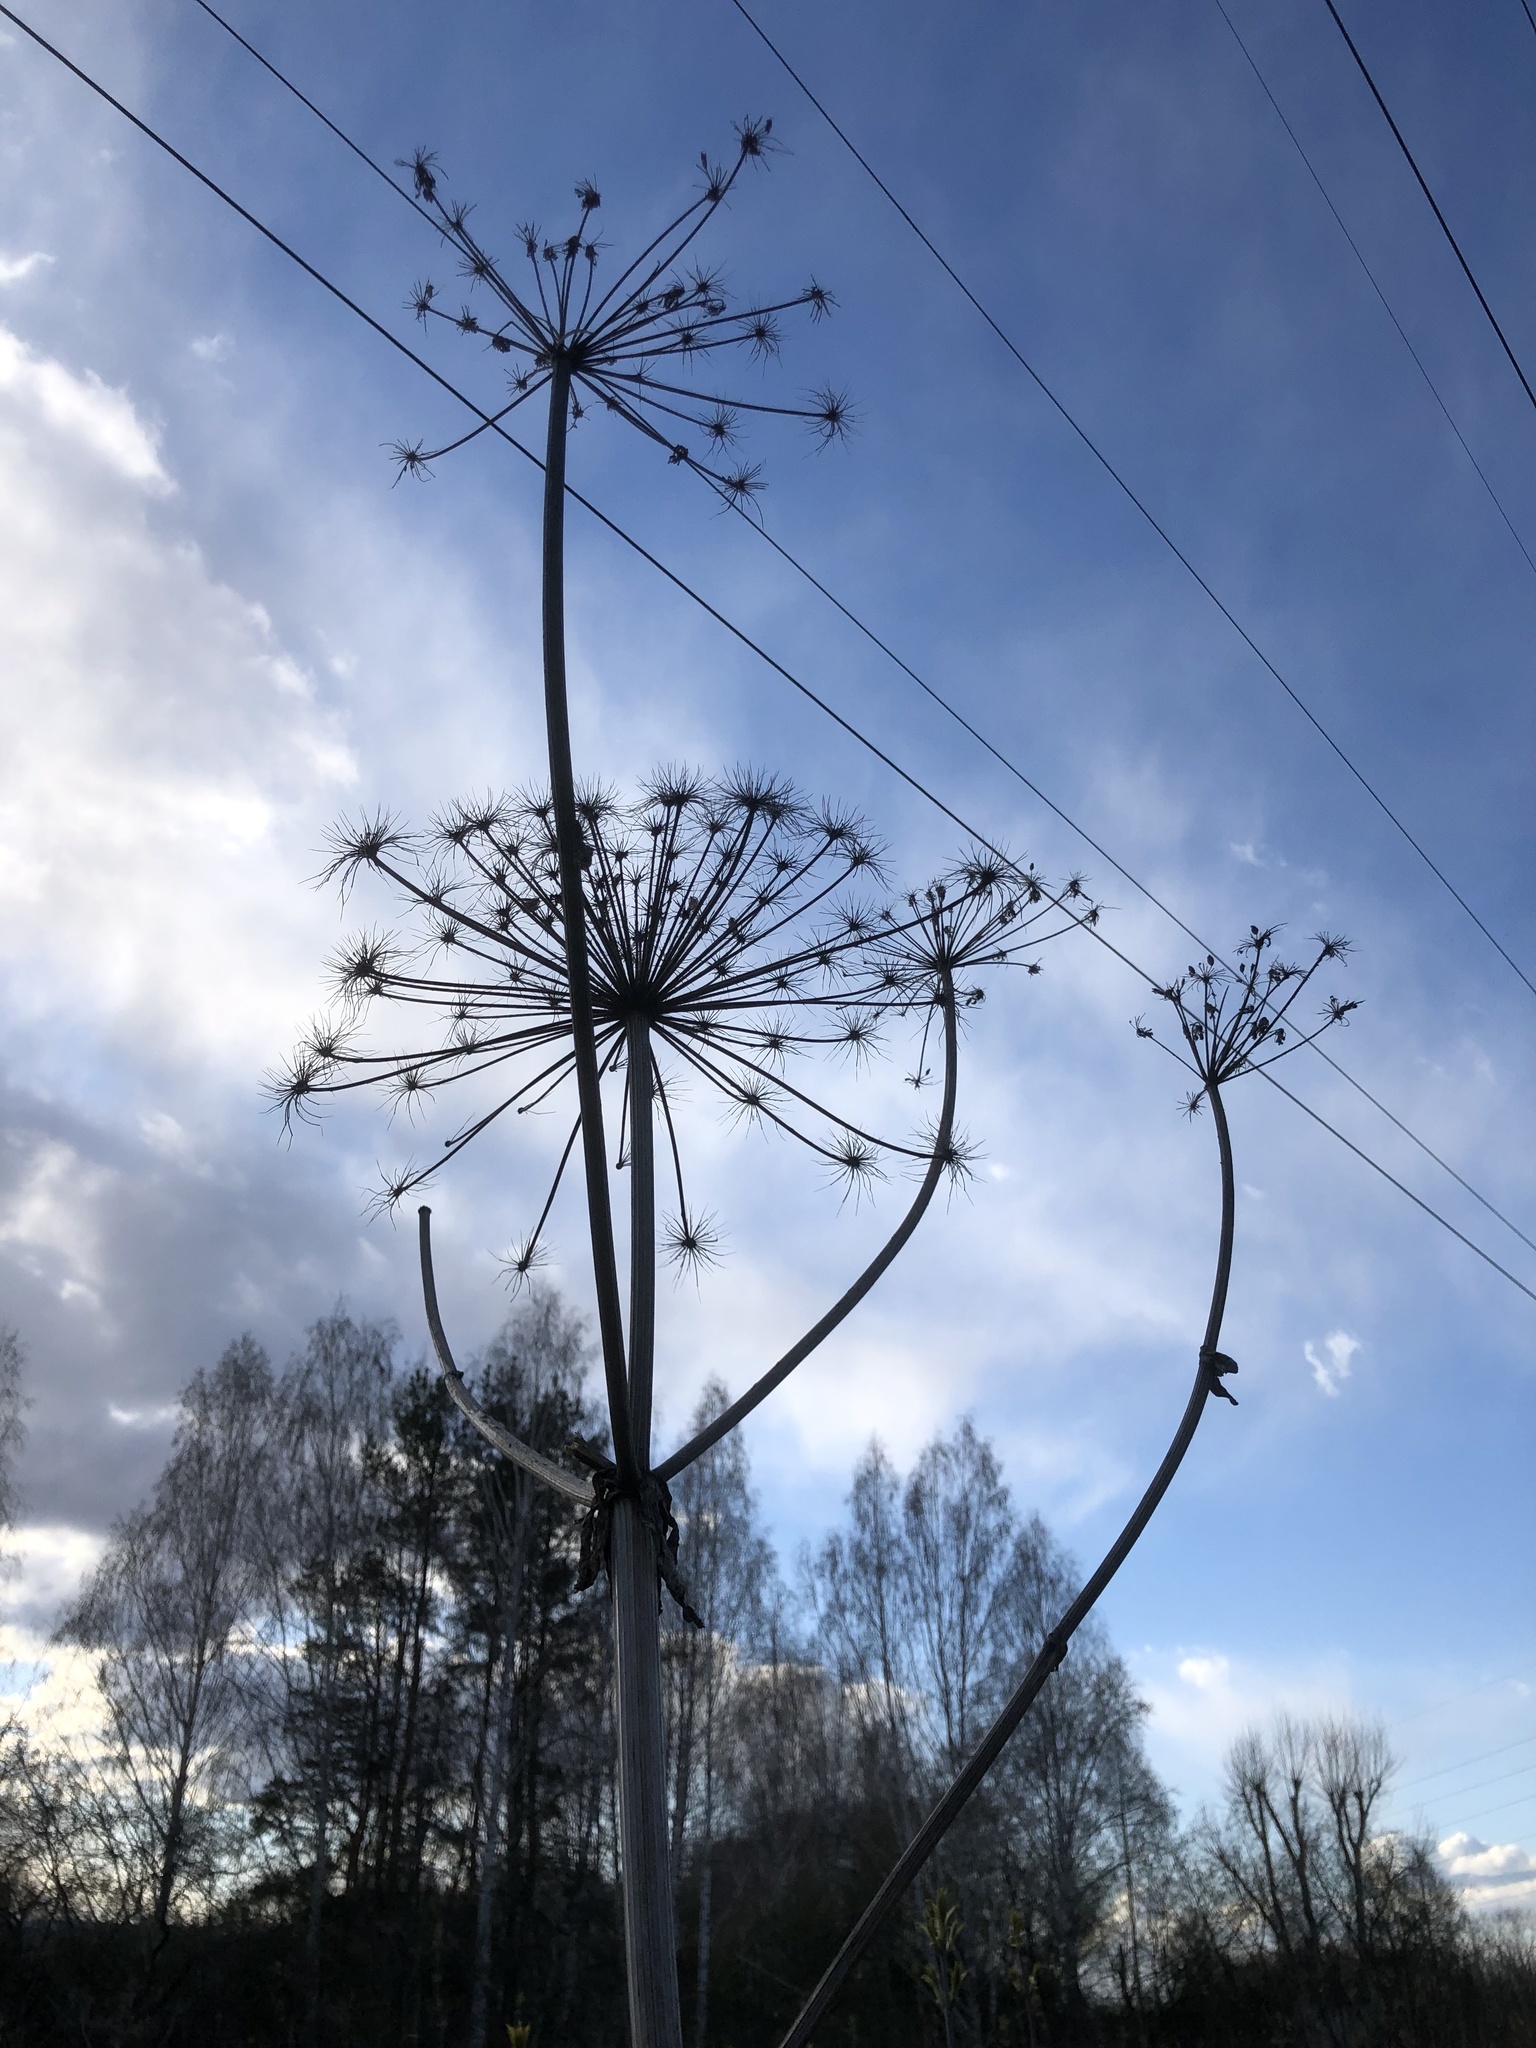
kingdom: Plantae
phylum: Tracheophyta
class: Magnoliopsida
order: Apiales
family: Apiaceae
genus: Heracleum
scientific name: Heracleum sosnowskyi
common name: Sosnowsky's hogweed
